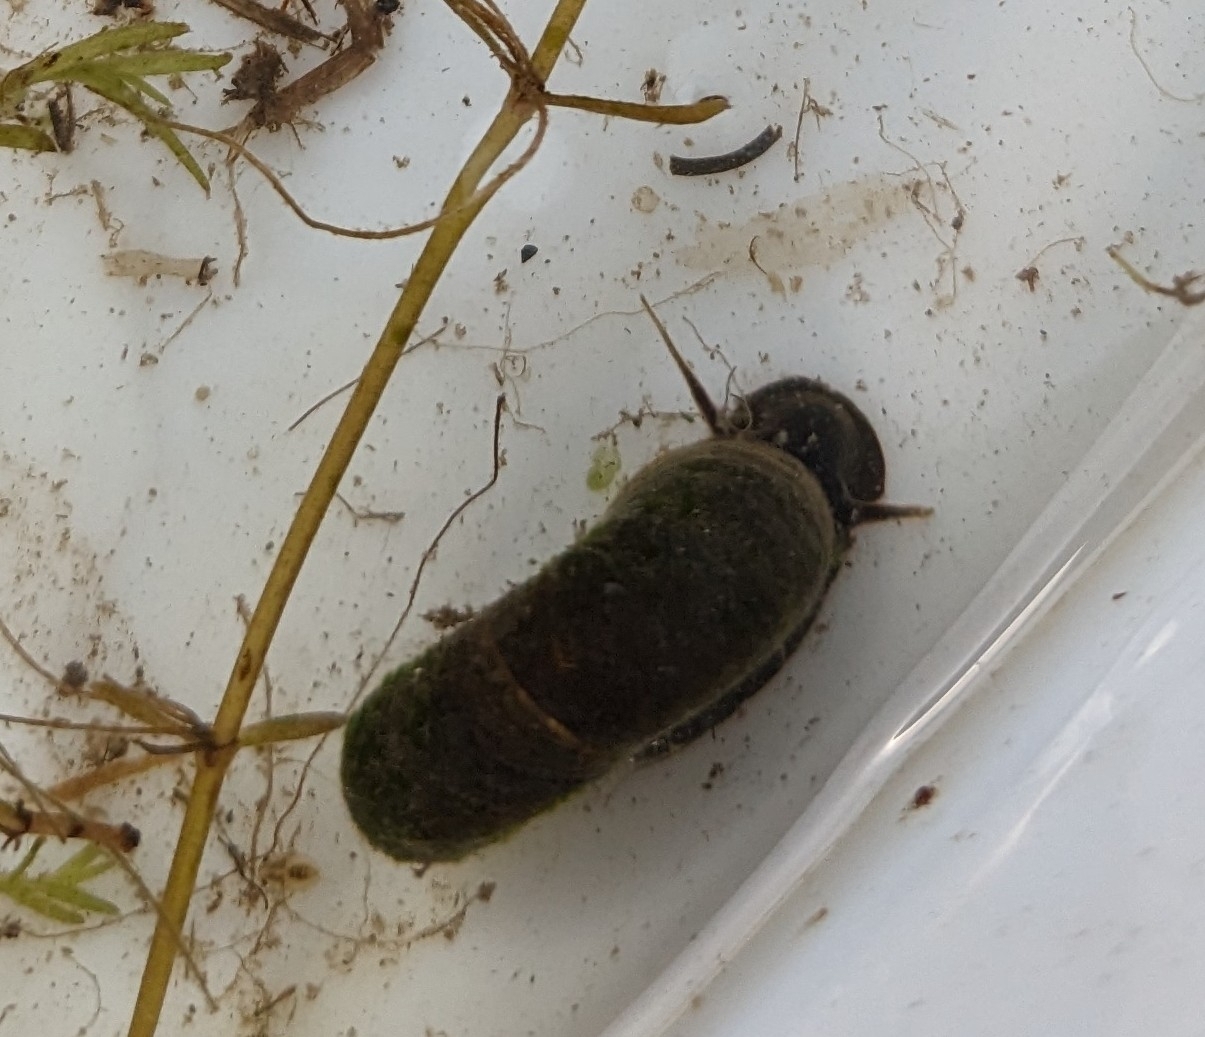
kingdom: Animalia
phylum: Mollusca
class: Gastropoda
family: Planorbidae
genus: Planorbarius
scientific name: Planorbarius corneus
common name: Great ramshorn
